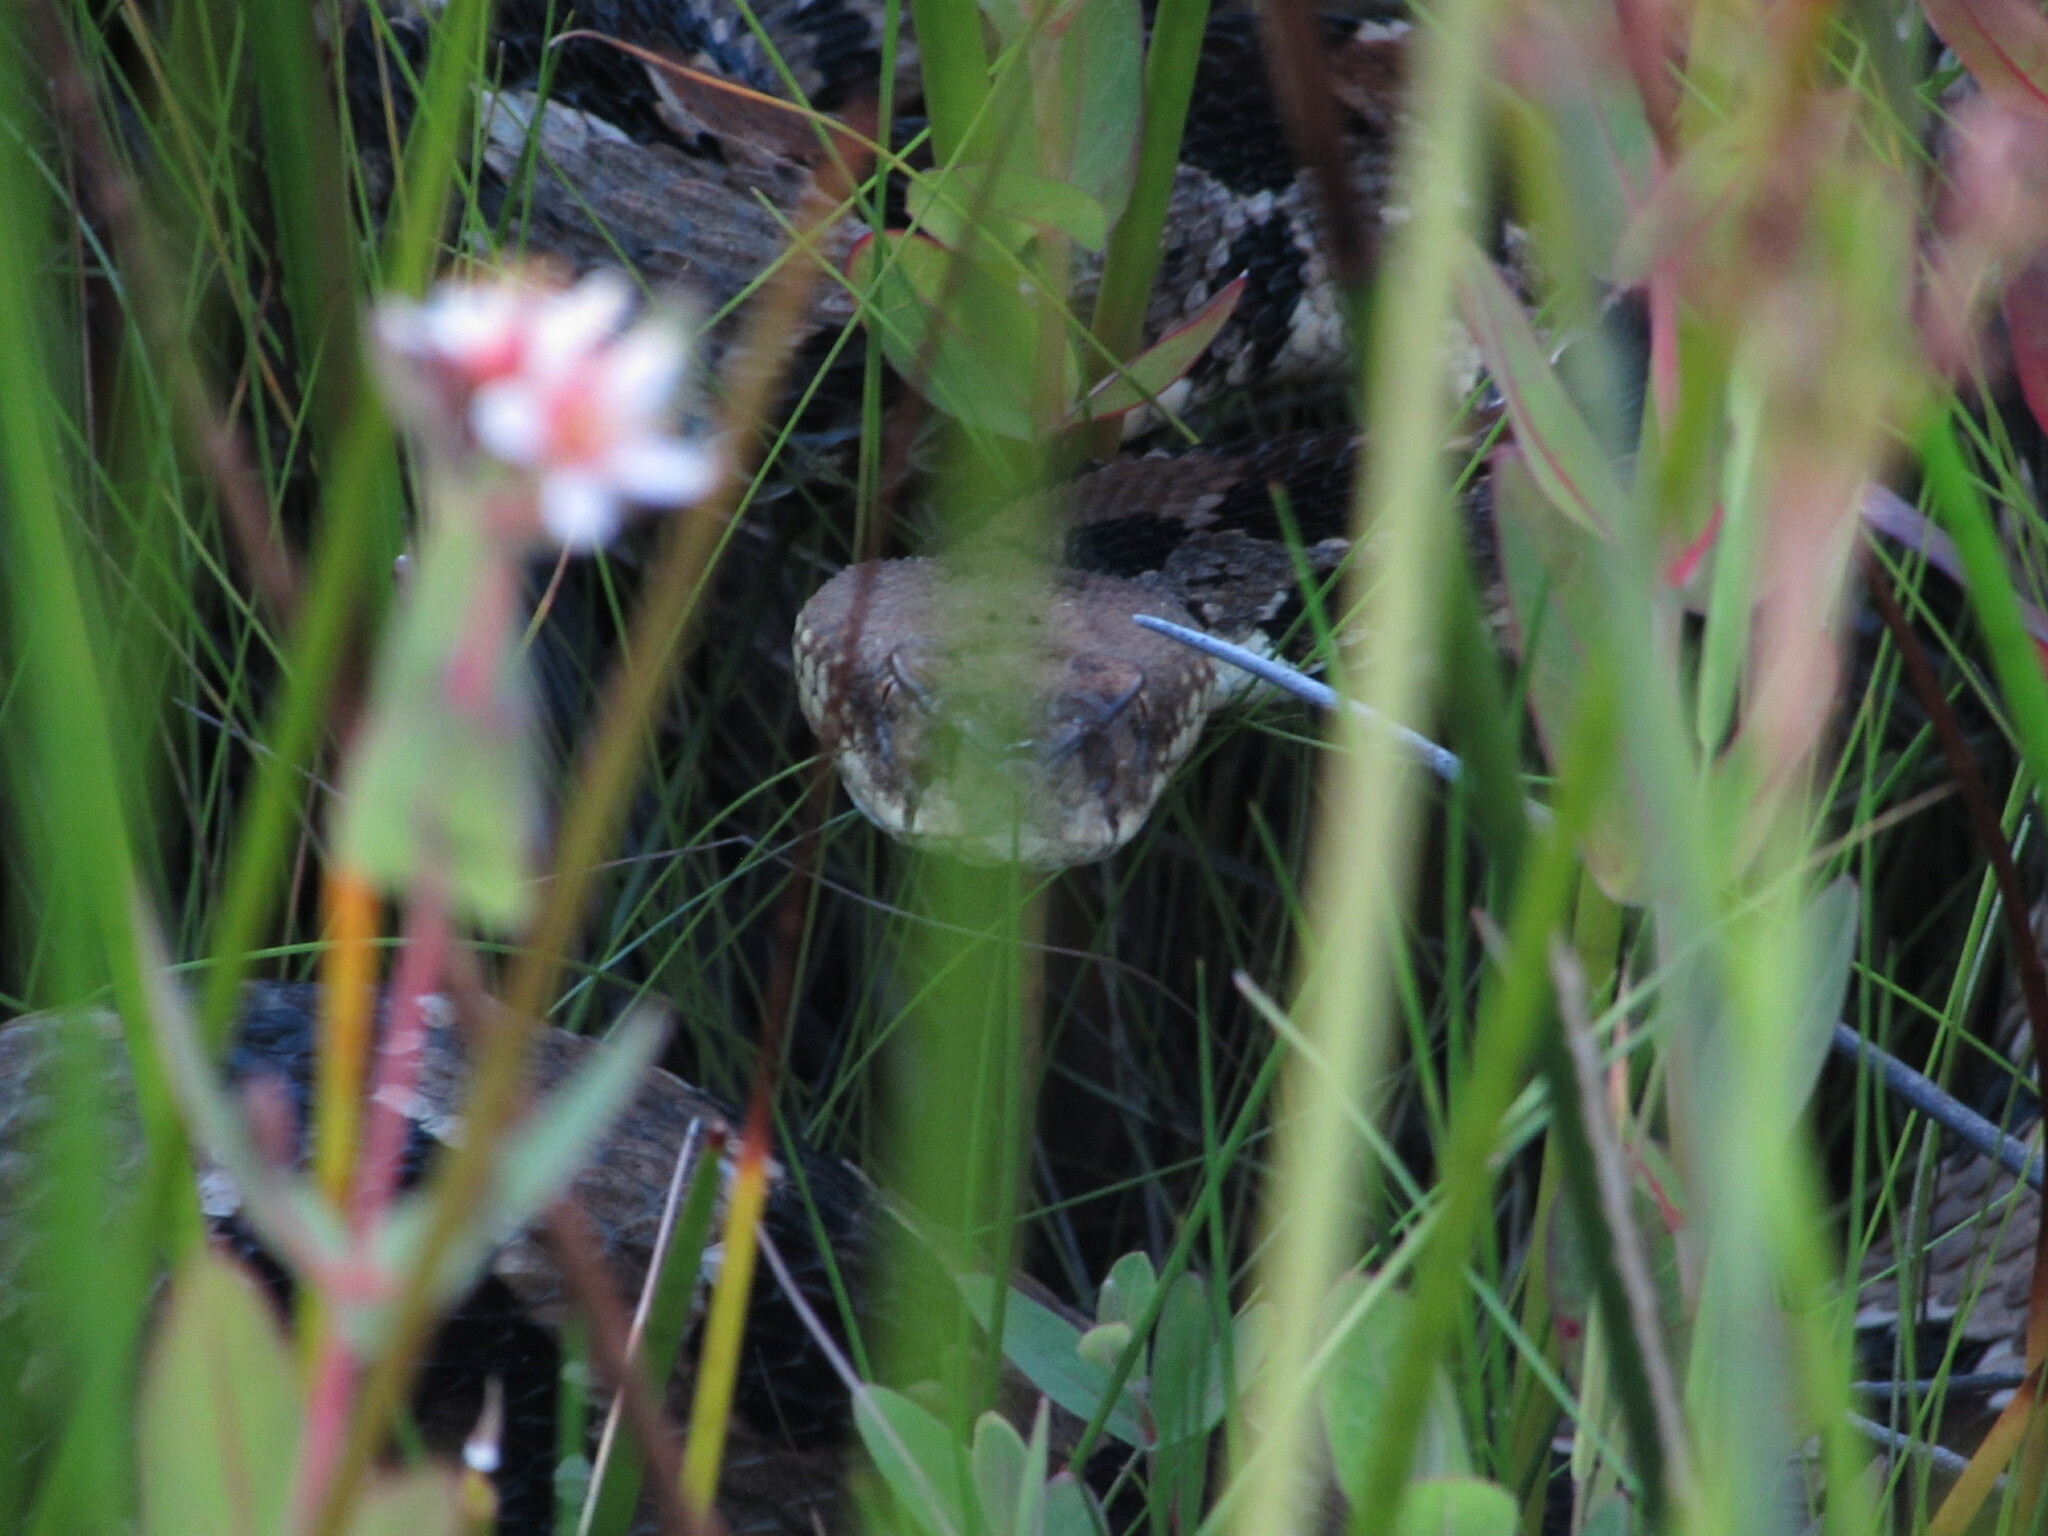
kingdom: Animalia
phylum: Chordata
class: Squamata
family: Viperidae
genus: Crotalus
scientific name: Crotalus horridus
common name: Timber rattlesnake
